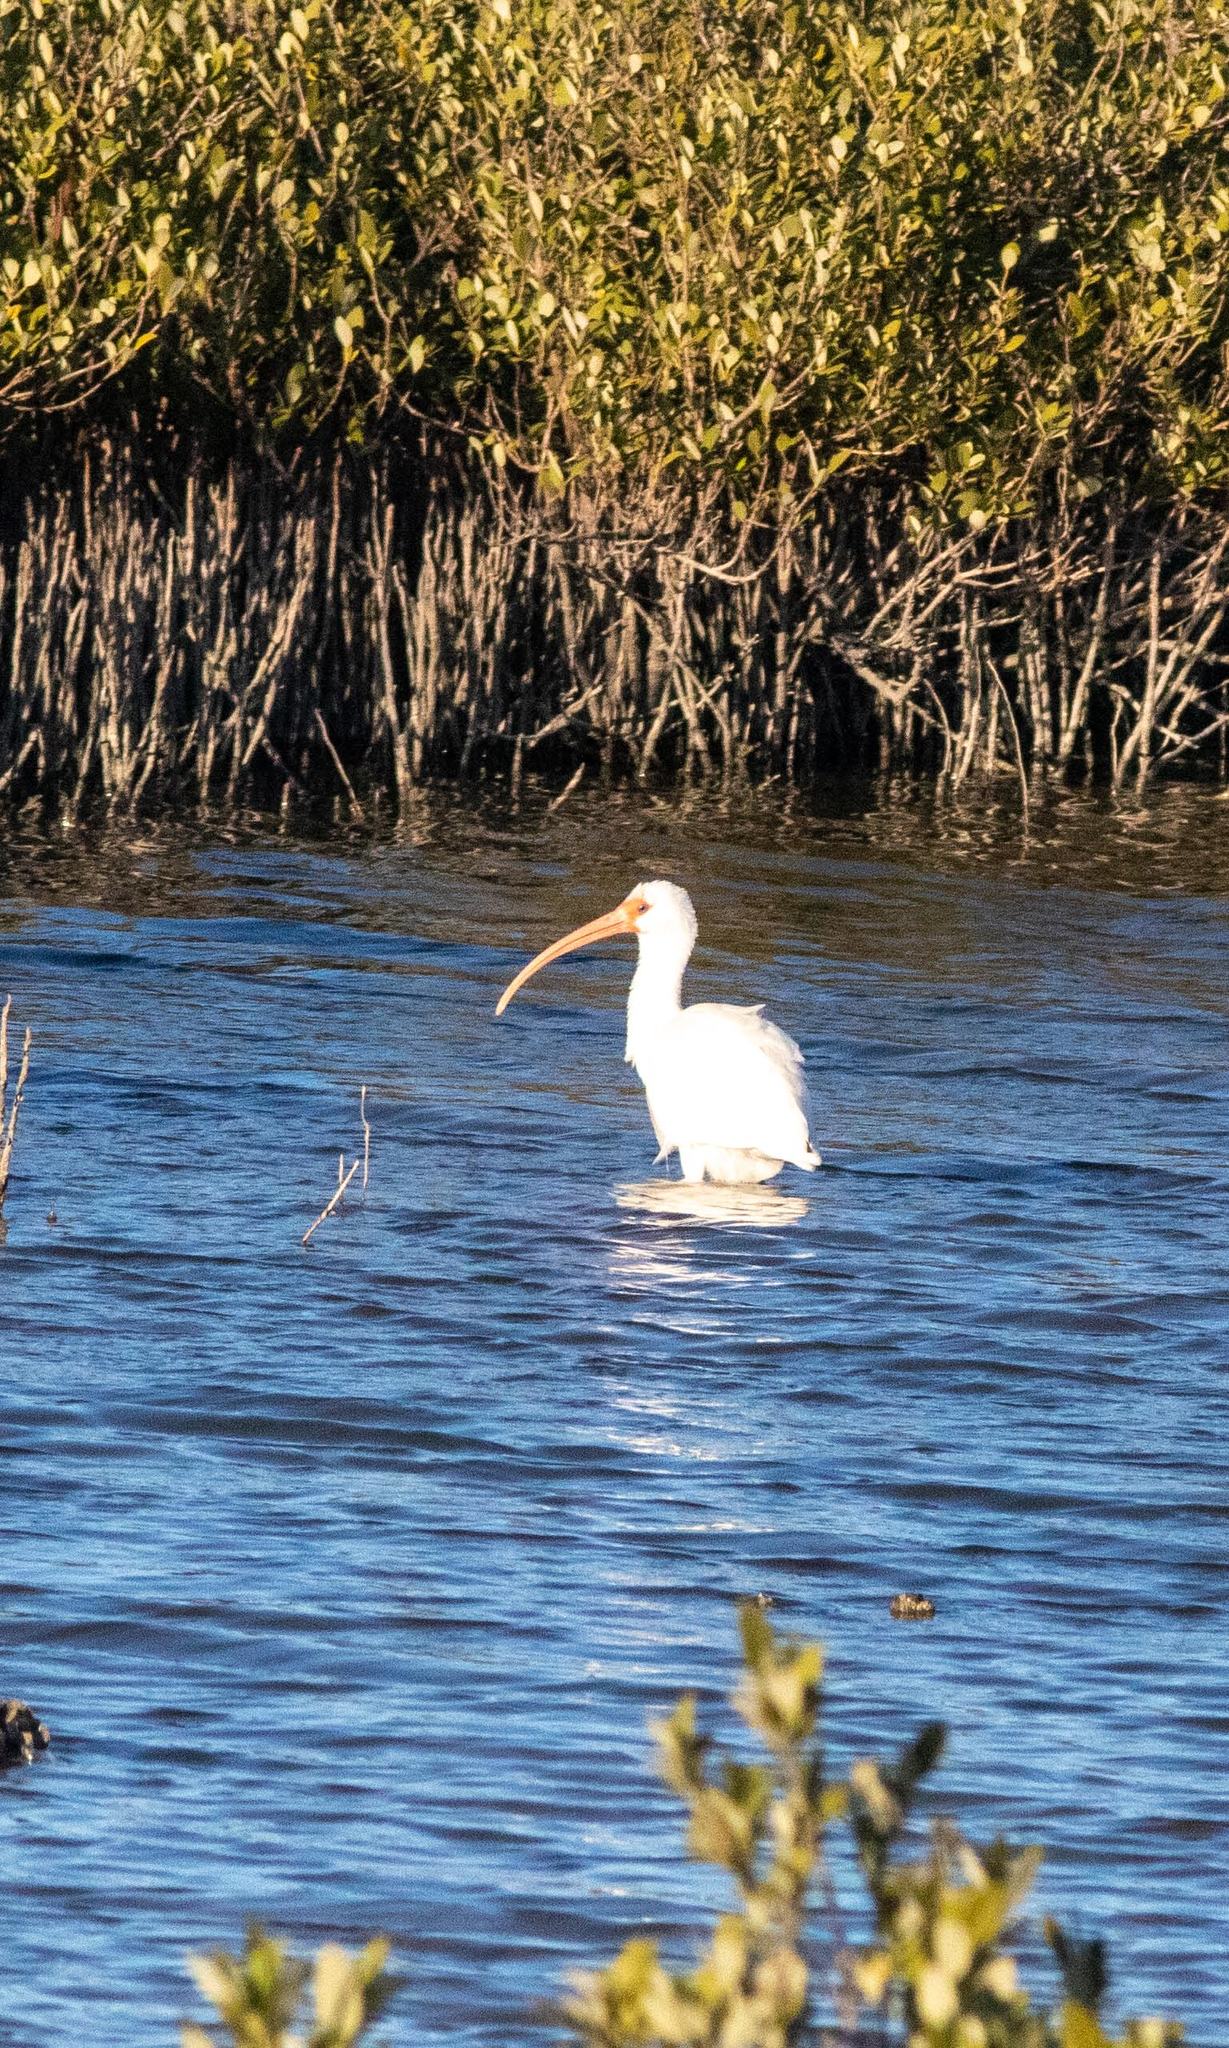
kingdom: Animalia
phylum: Chordata
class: Aves
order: Pelecaniformes
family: Threskiornithidae
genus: Eudocimus
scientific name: Eudocimus albus
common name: White ibis
